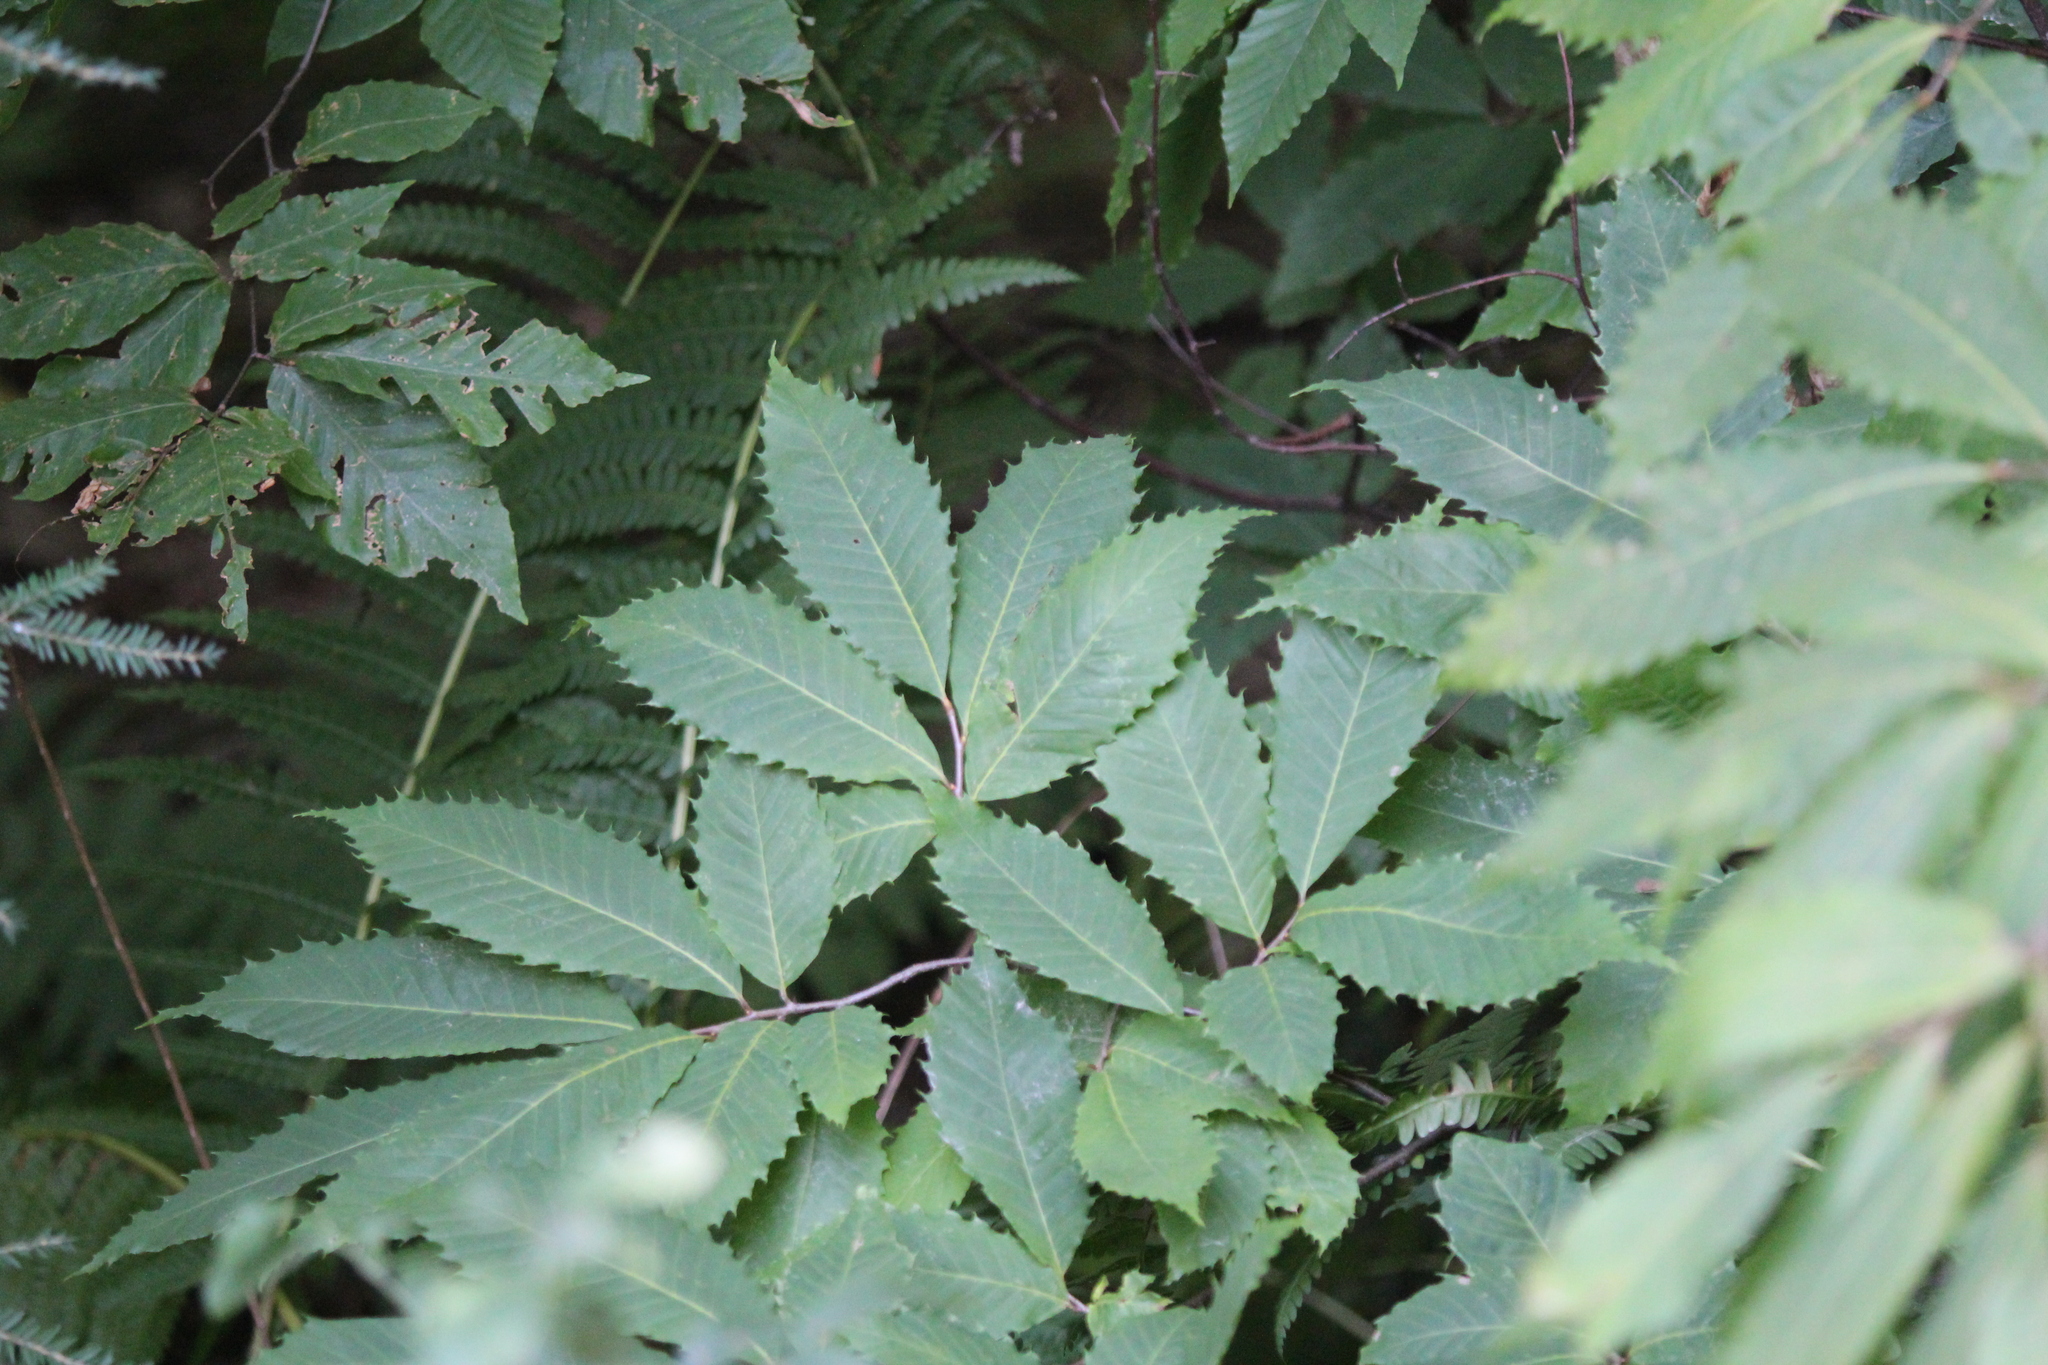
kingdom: Plantae
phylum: Tracheophyta
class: Magnoliopsida
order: Fagales
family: Fagaceae
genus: Castanea
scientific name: Castanea dentata
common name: American chestnut
